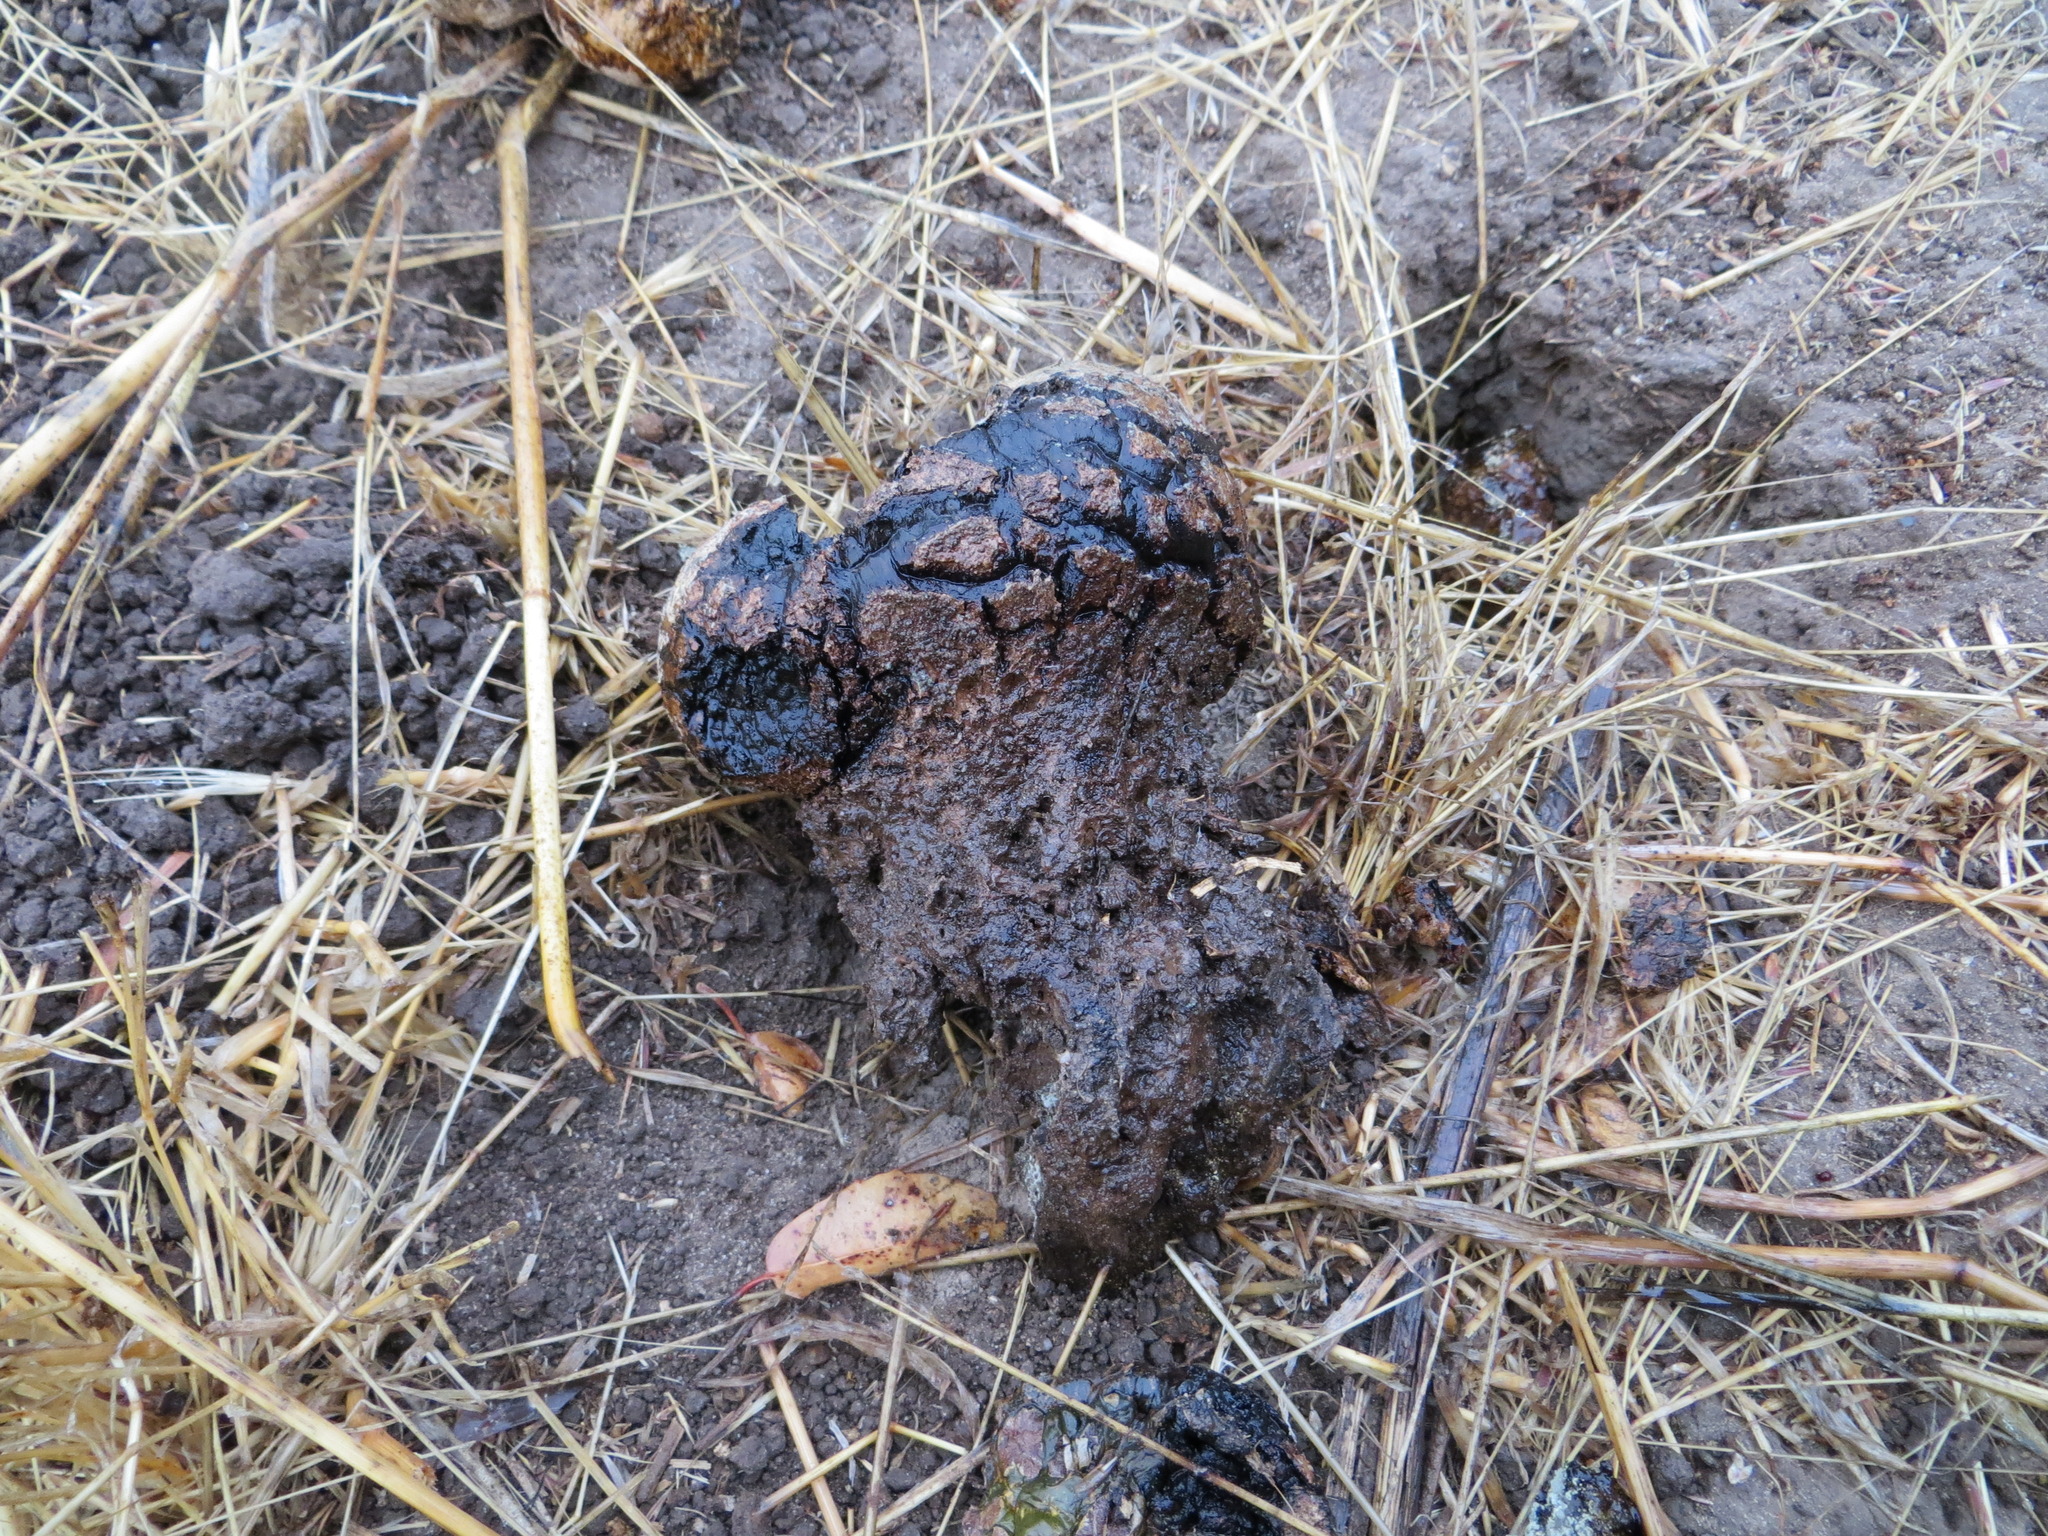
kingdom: Fungi
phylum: Basidiomycota
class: Agaricomycetes
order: Boletales
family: Sclerodermataceae
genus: Pisolithus
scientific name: Pisolithus arhizus
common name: Dyeball
